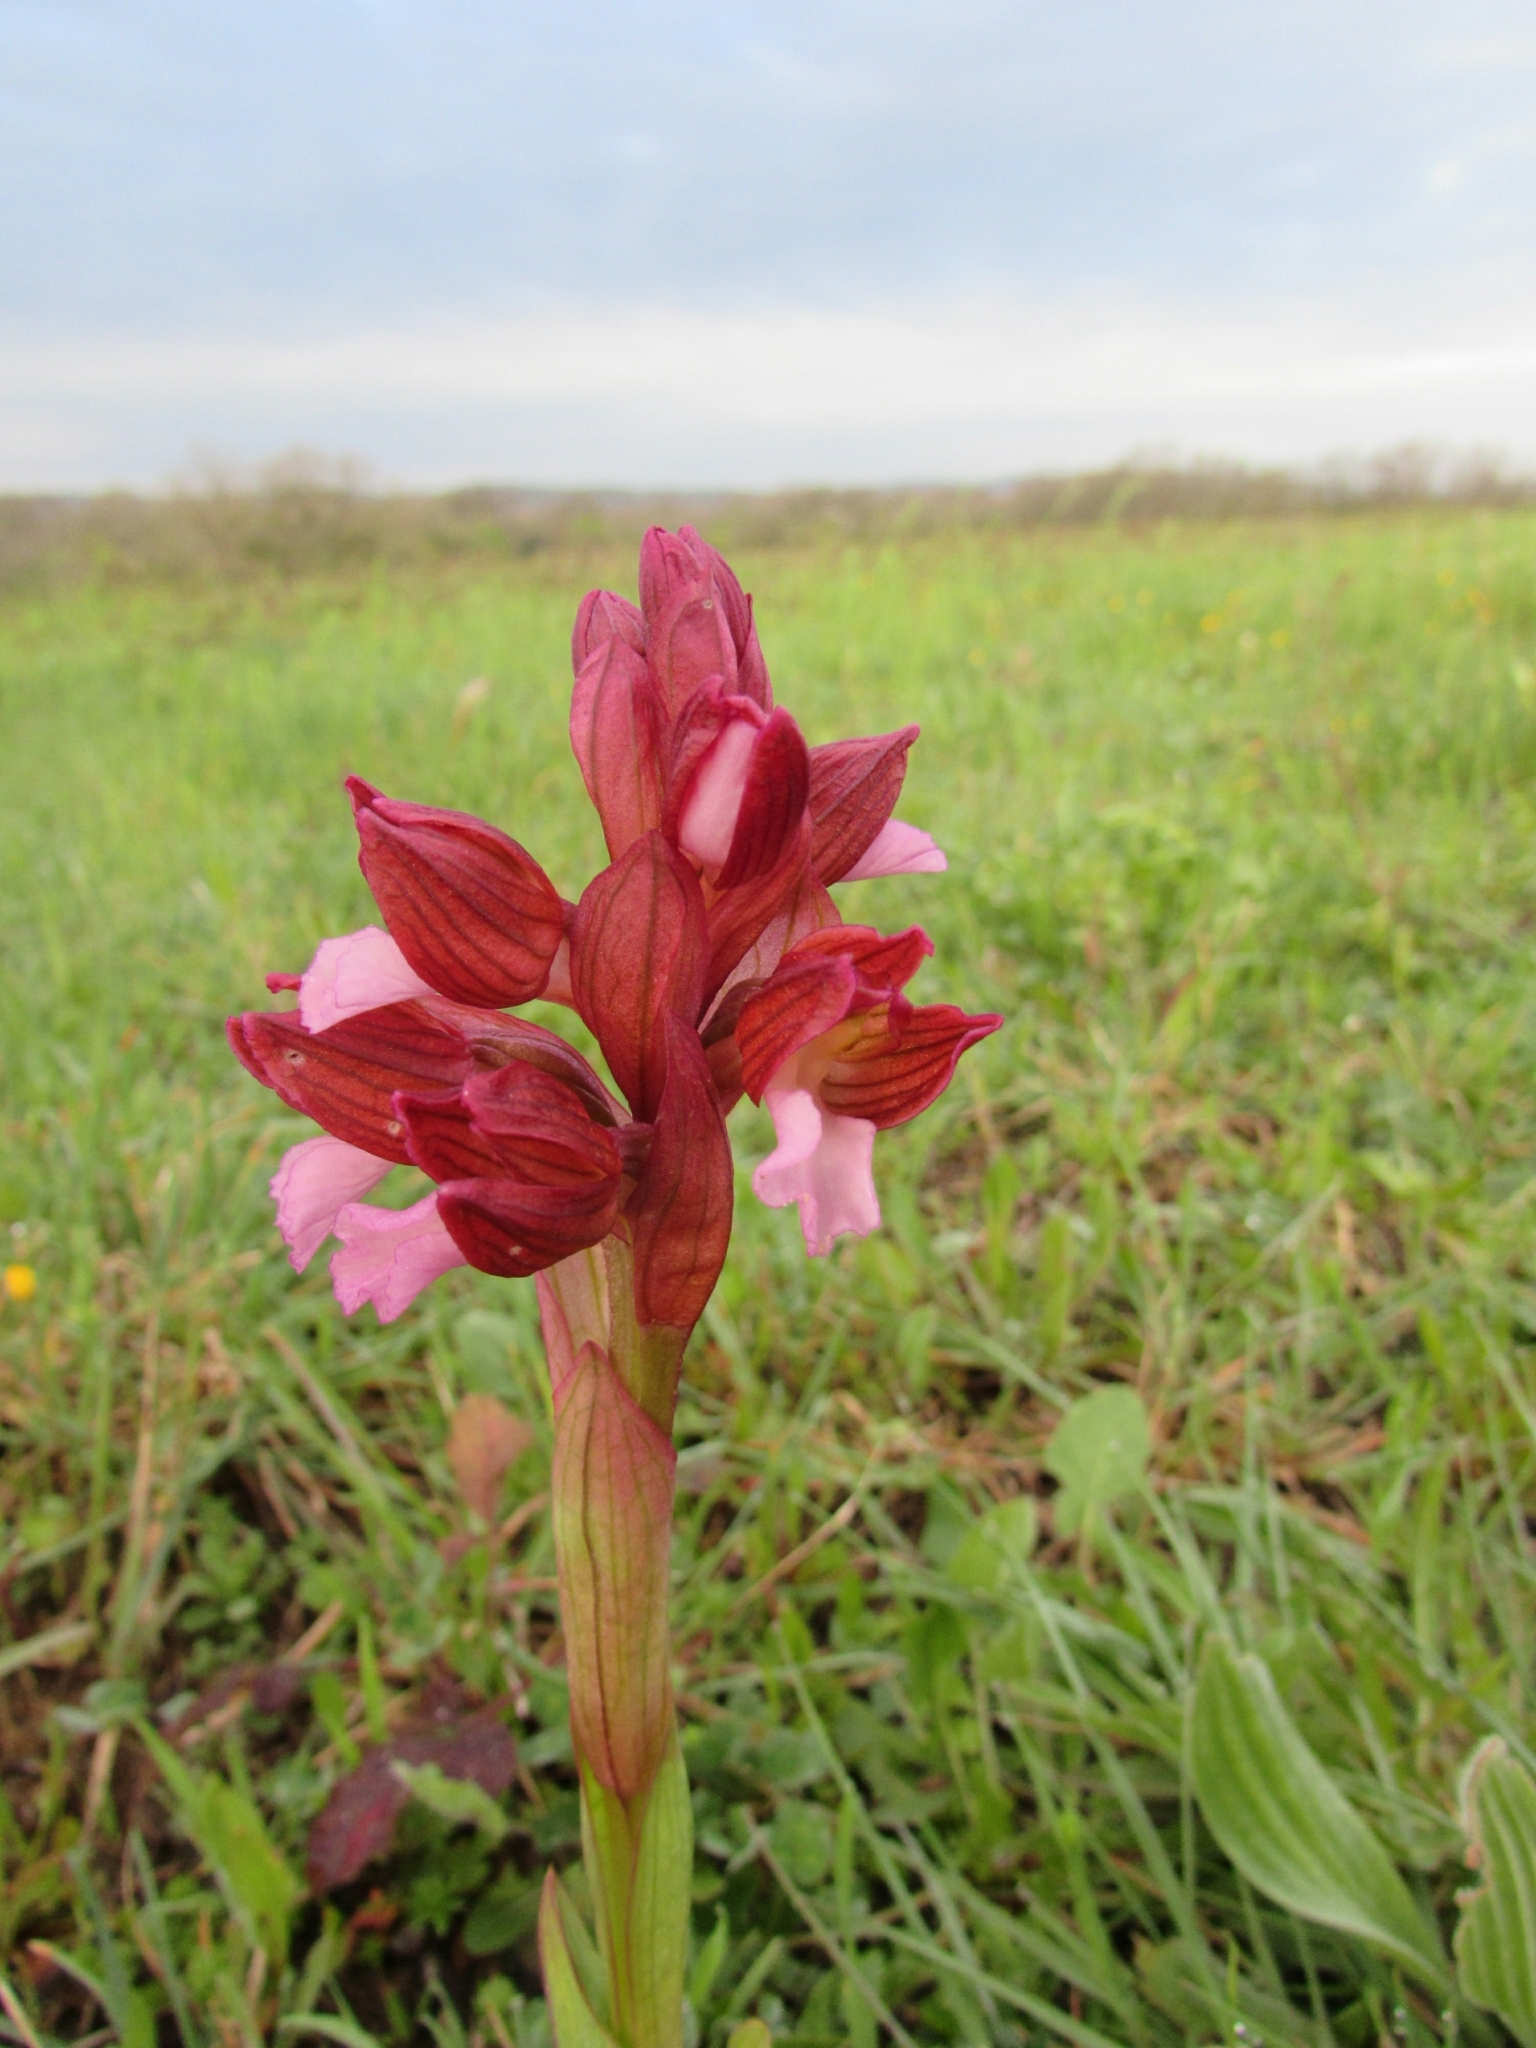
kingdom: Plantae
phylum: Tracheophyta
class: Liliopsida
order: Asparagales
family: Orchidaceae
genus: Anacamptis
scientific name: Anacamptis papilionacea
